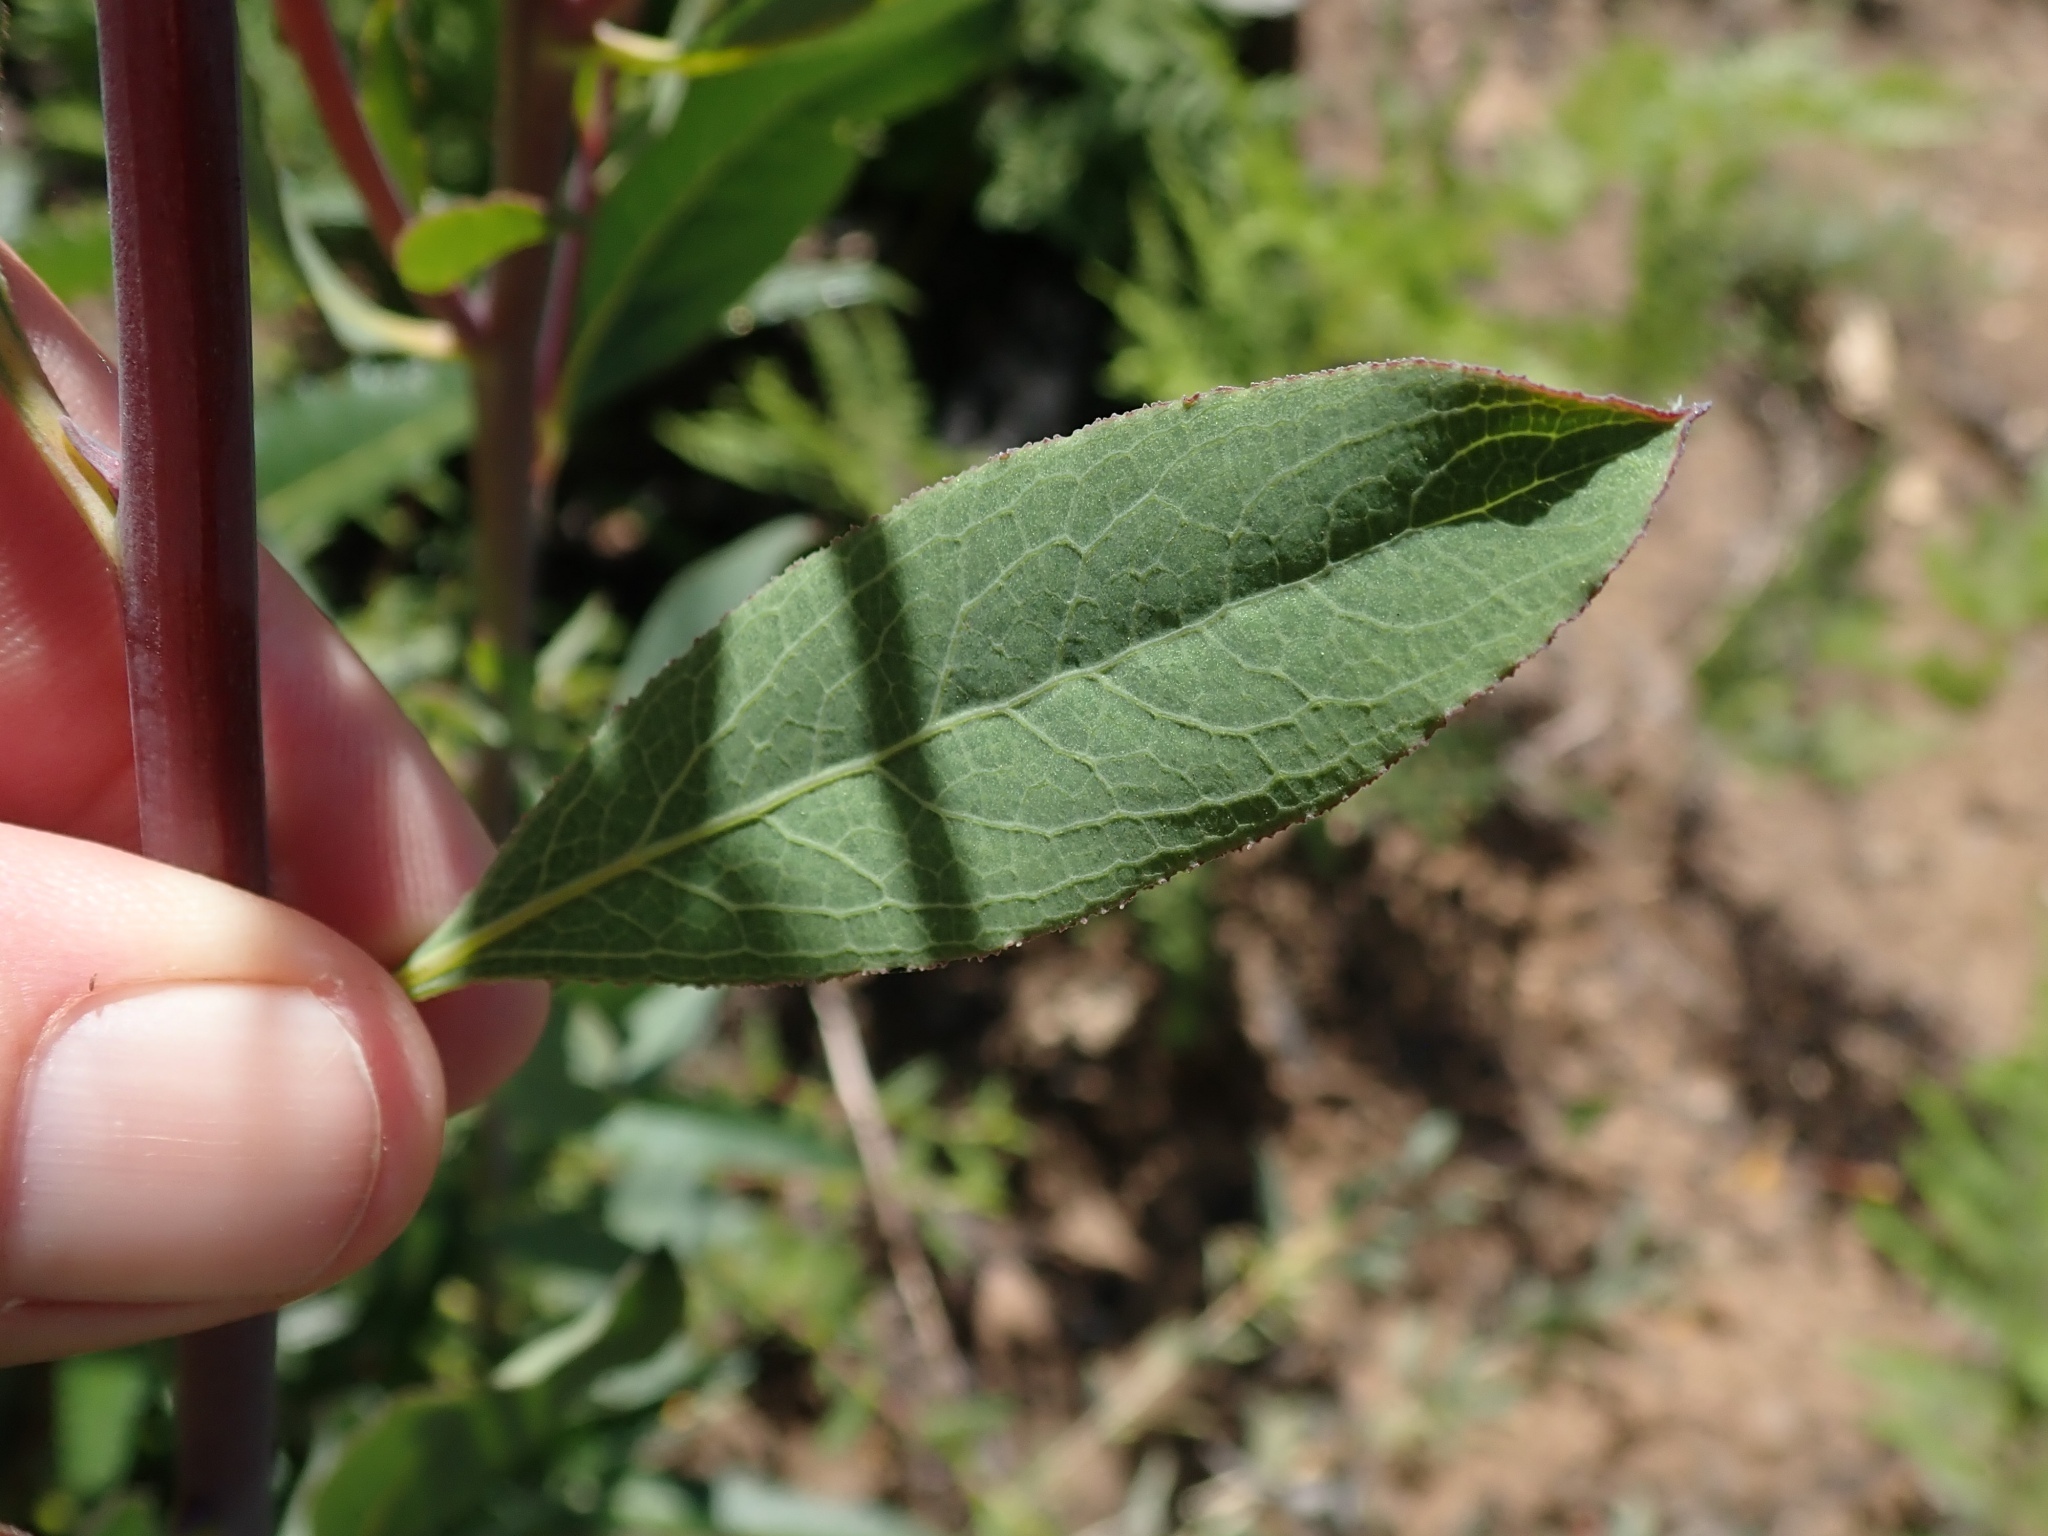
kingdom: Plantae
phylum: Tracheophyta
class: Magnoliopsida
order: Ranunculales
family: Papaveraceae
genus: Dendromecon
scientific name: Dendromecon rigida
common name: Tree poppy
